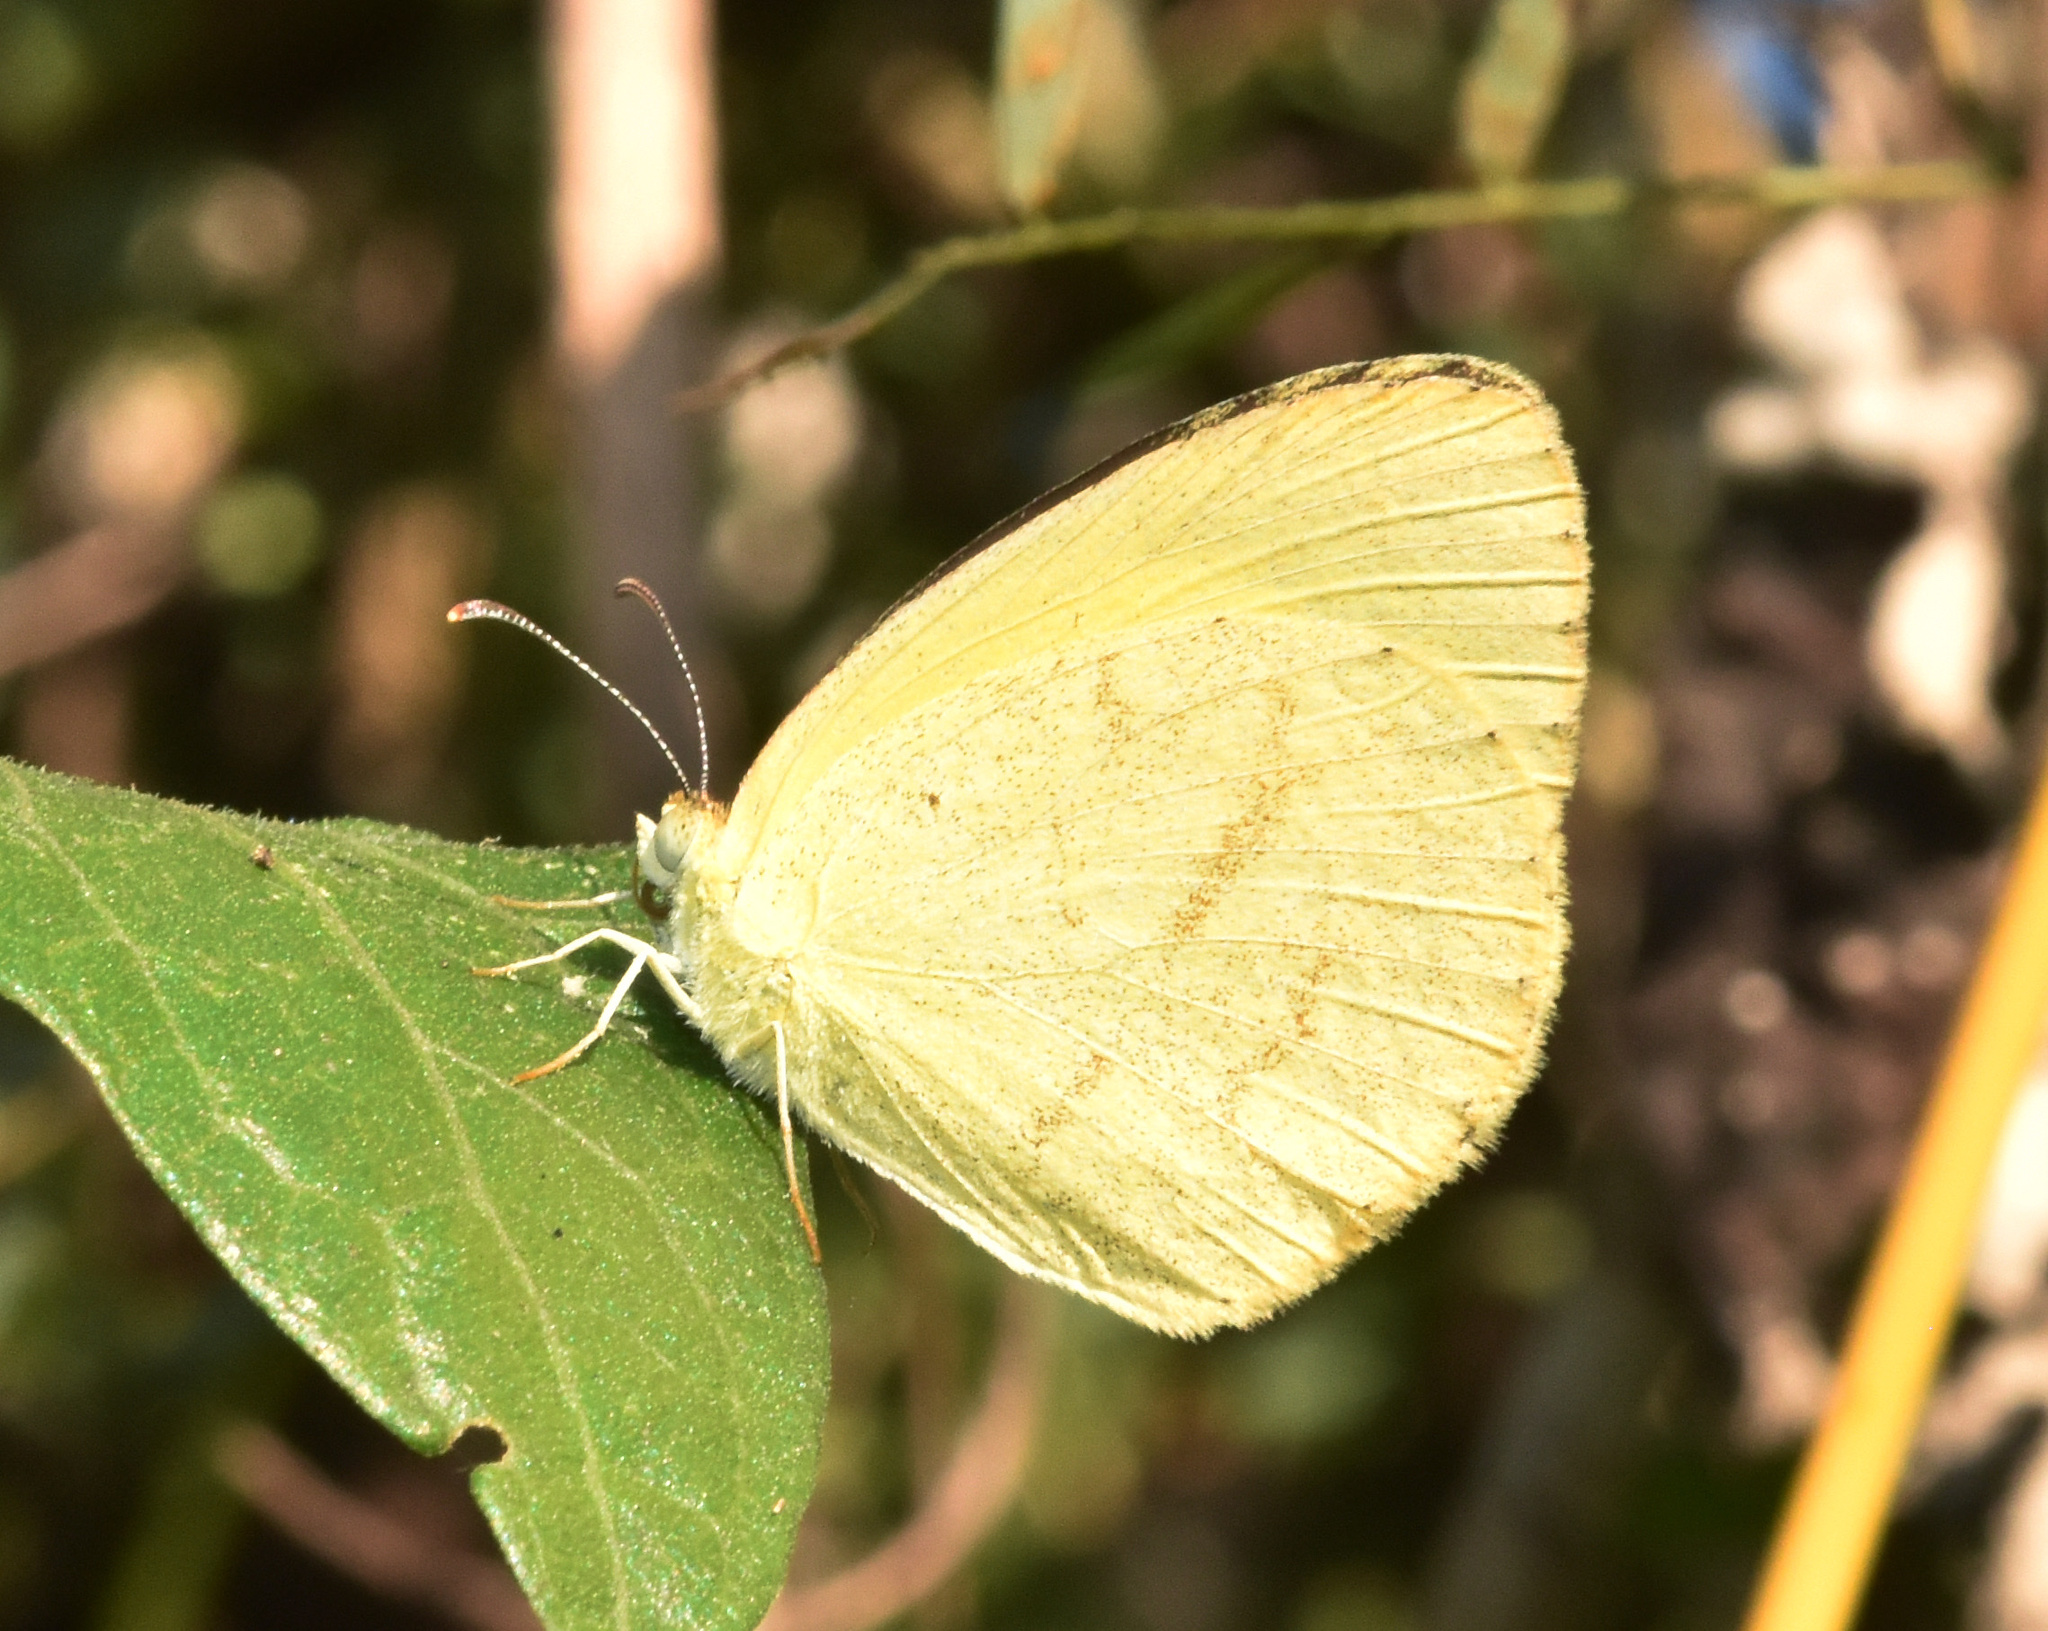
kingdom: Animalia
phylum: Arthropoda
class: Insecta
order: Lepidoptera
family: Pieridae
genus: Eurema
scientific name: Eurema brigitta
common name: Small grass yellow
